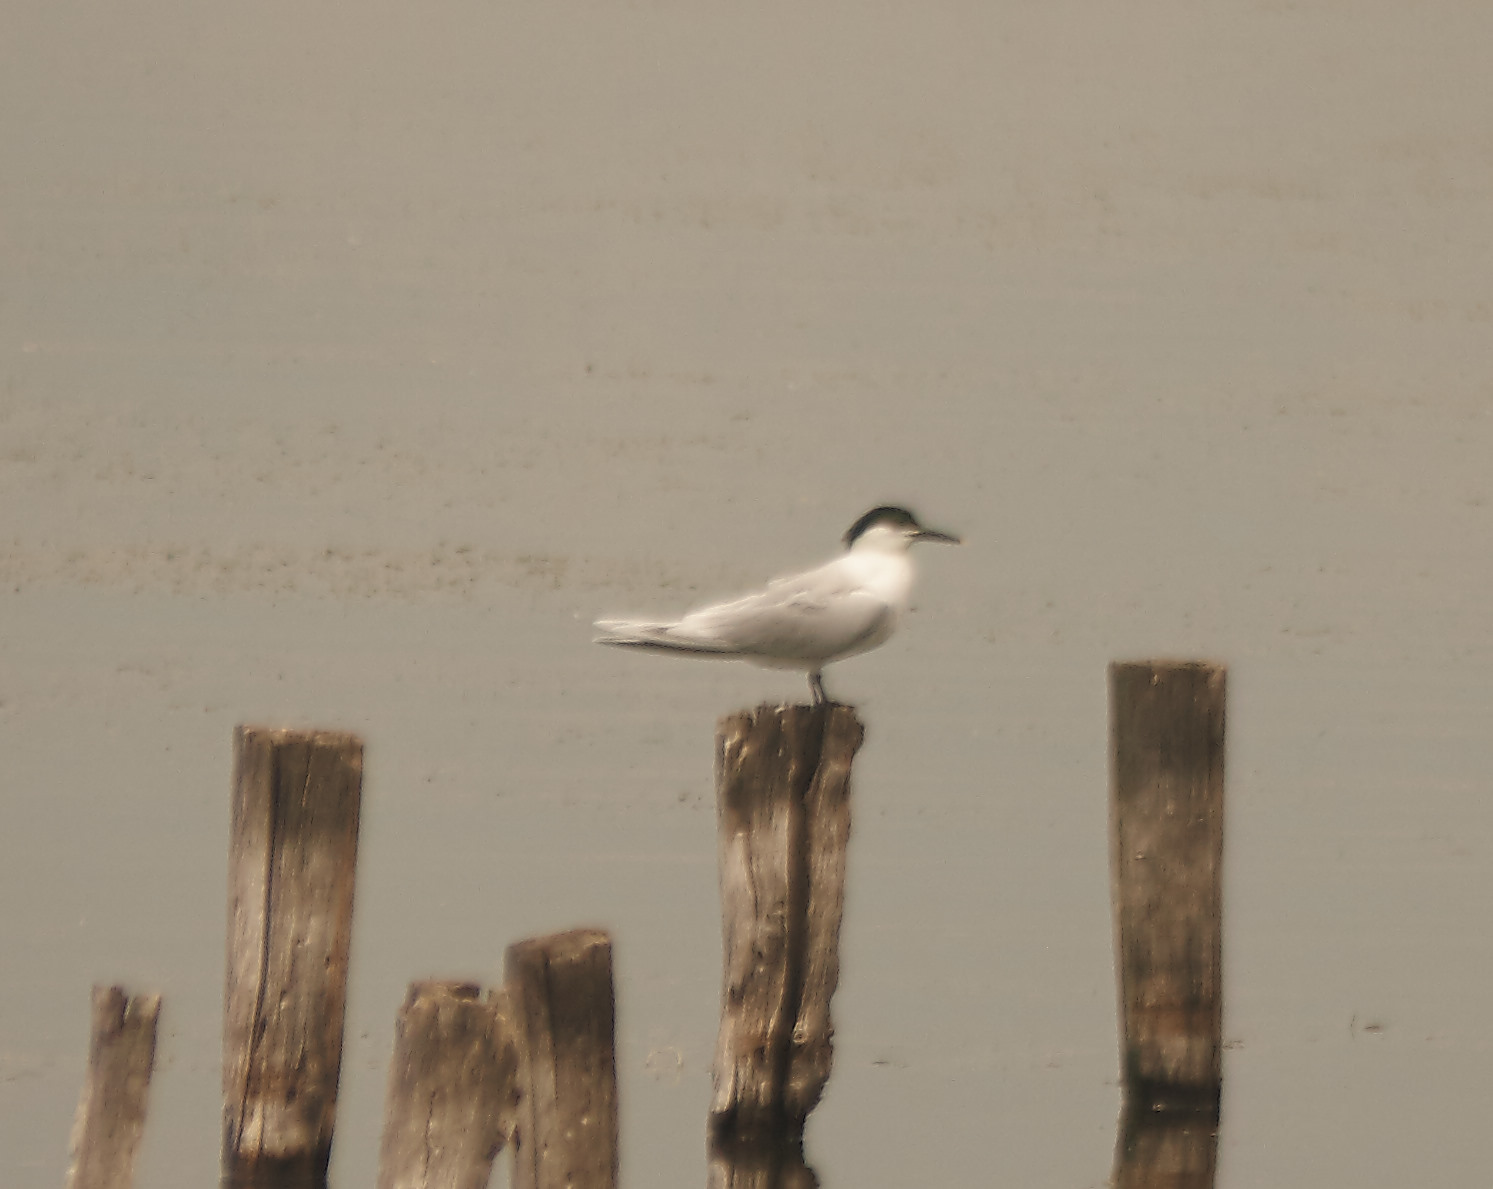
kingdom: Animalia
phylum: Chordata
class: Aves
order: Charadriiformes
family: Laridae
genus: Thalasseus
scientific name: Thalasseus sandvicensis
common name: Sandwich tern
